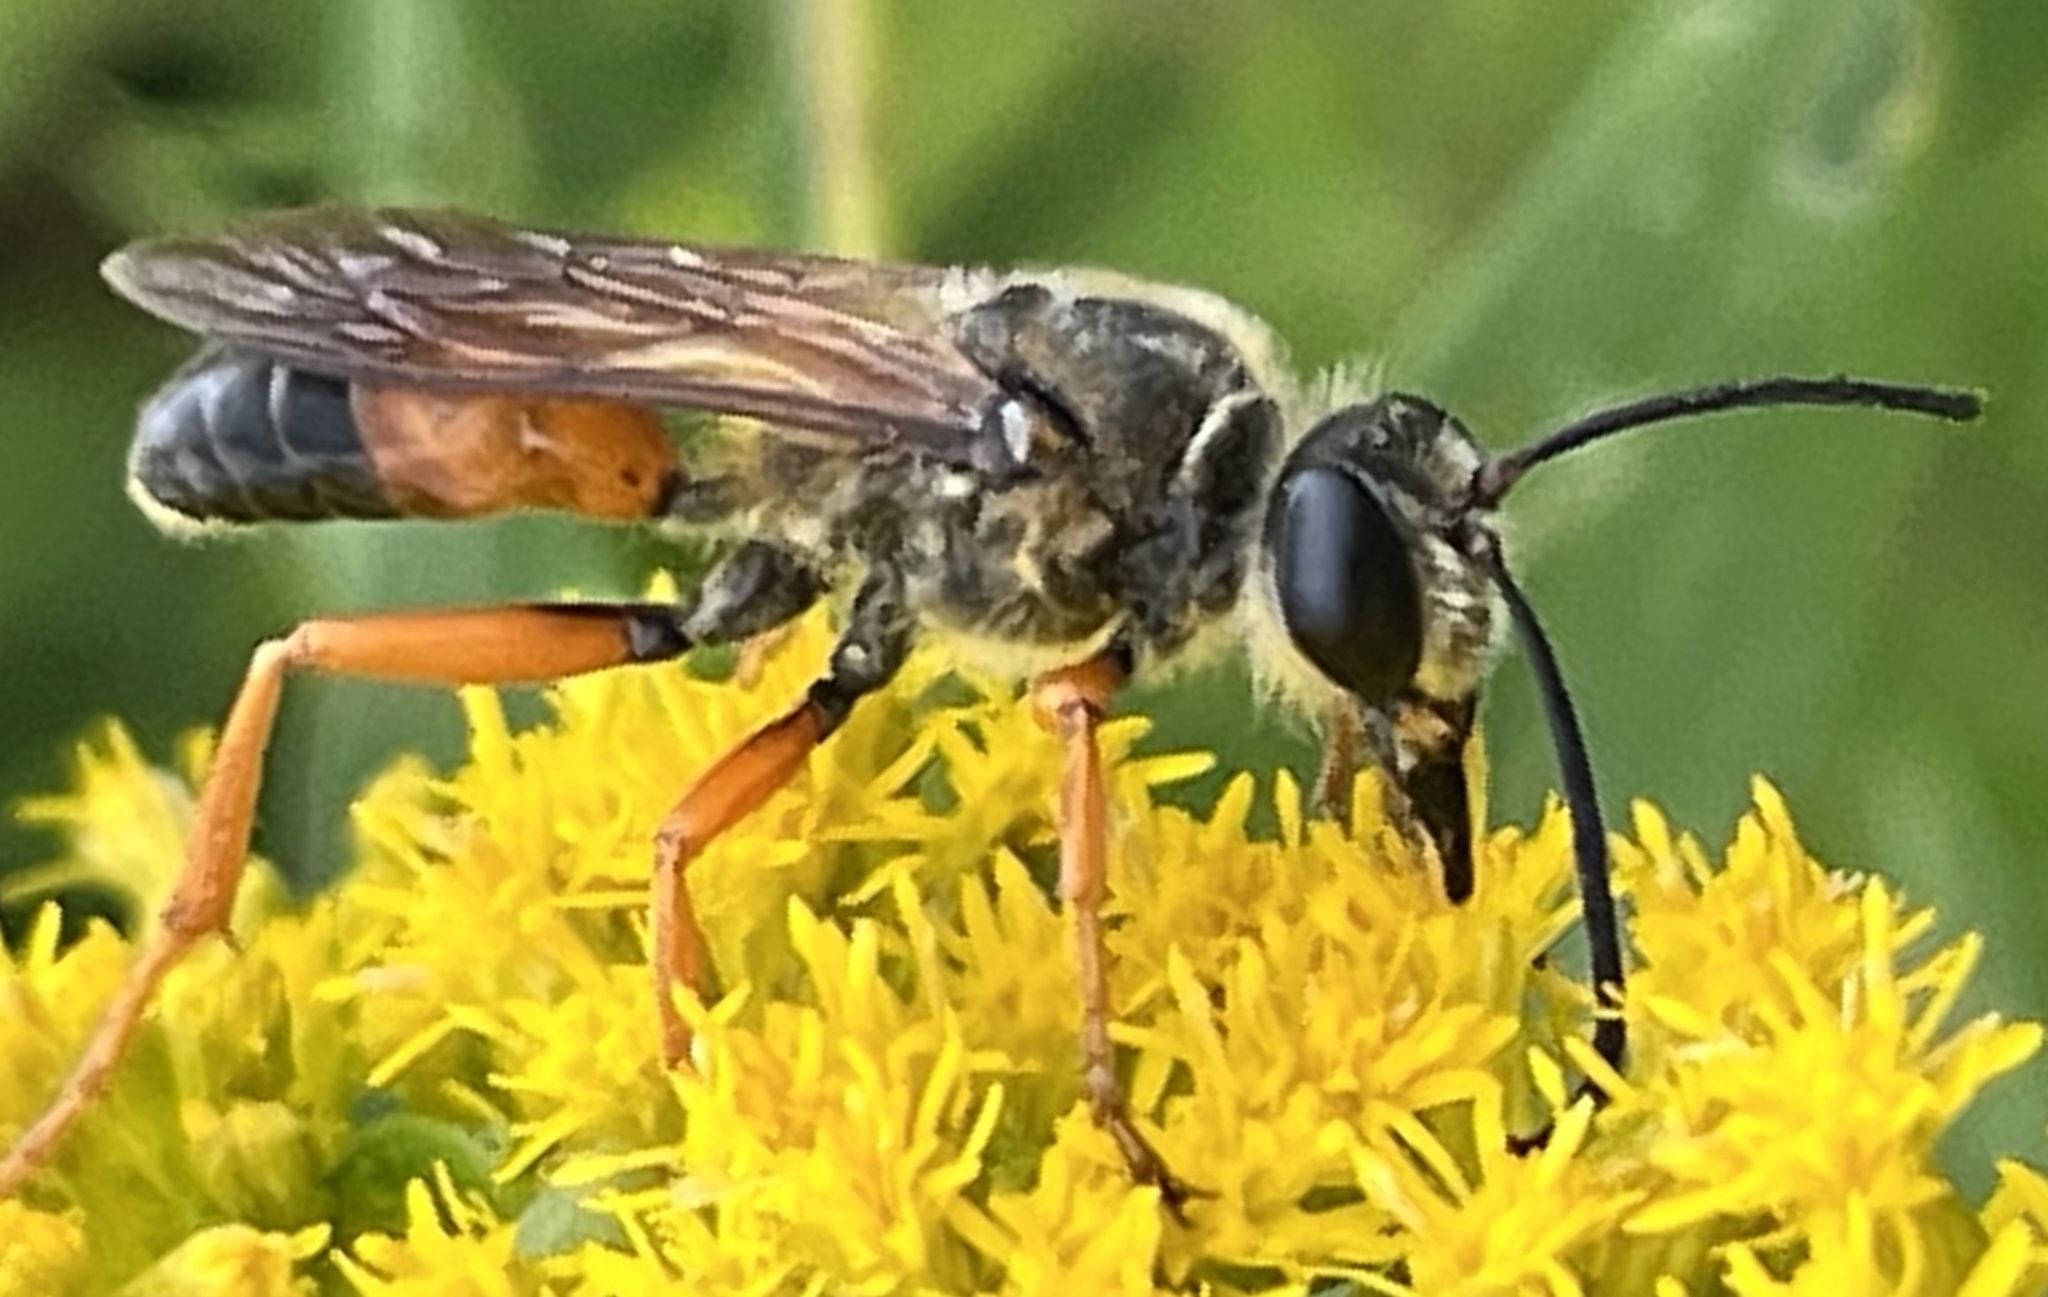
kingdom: Animalia
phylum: Arthropoda
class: Insecta
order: Hymenoptera
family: Sphecidae
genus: Sphex
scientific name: Sphex ichneumoneus
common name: Great golden digger wasp
